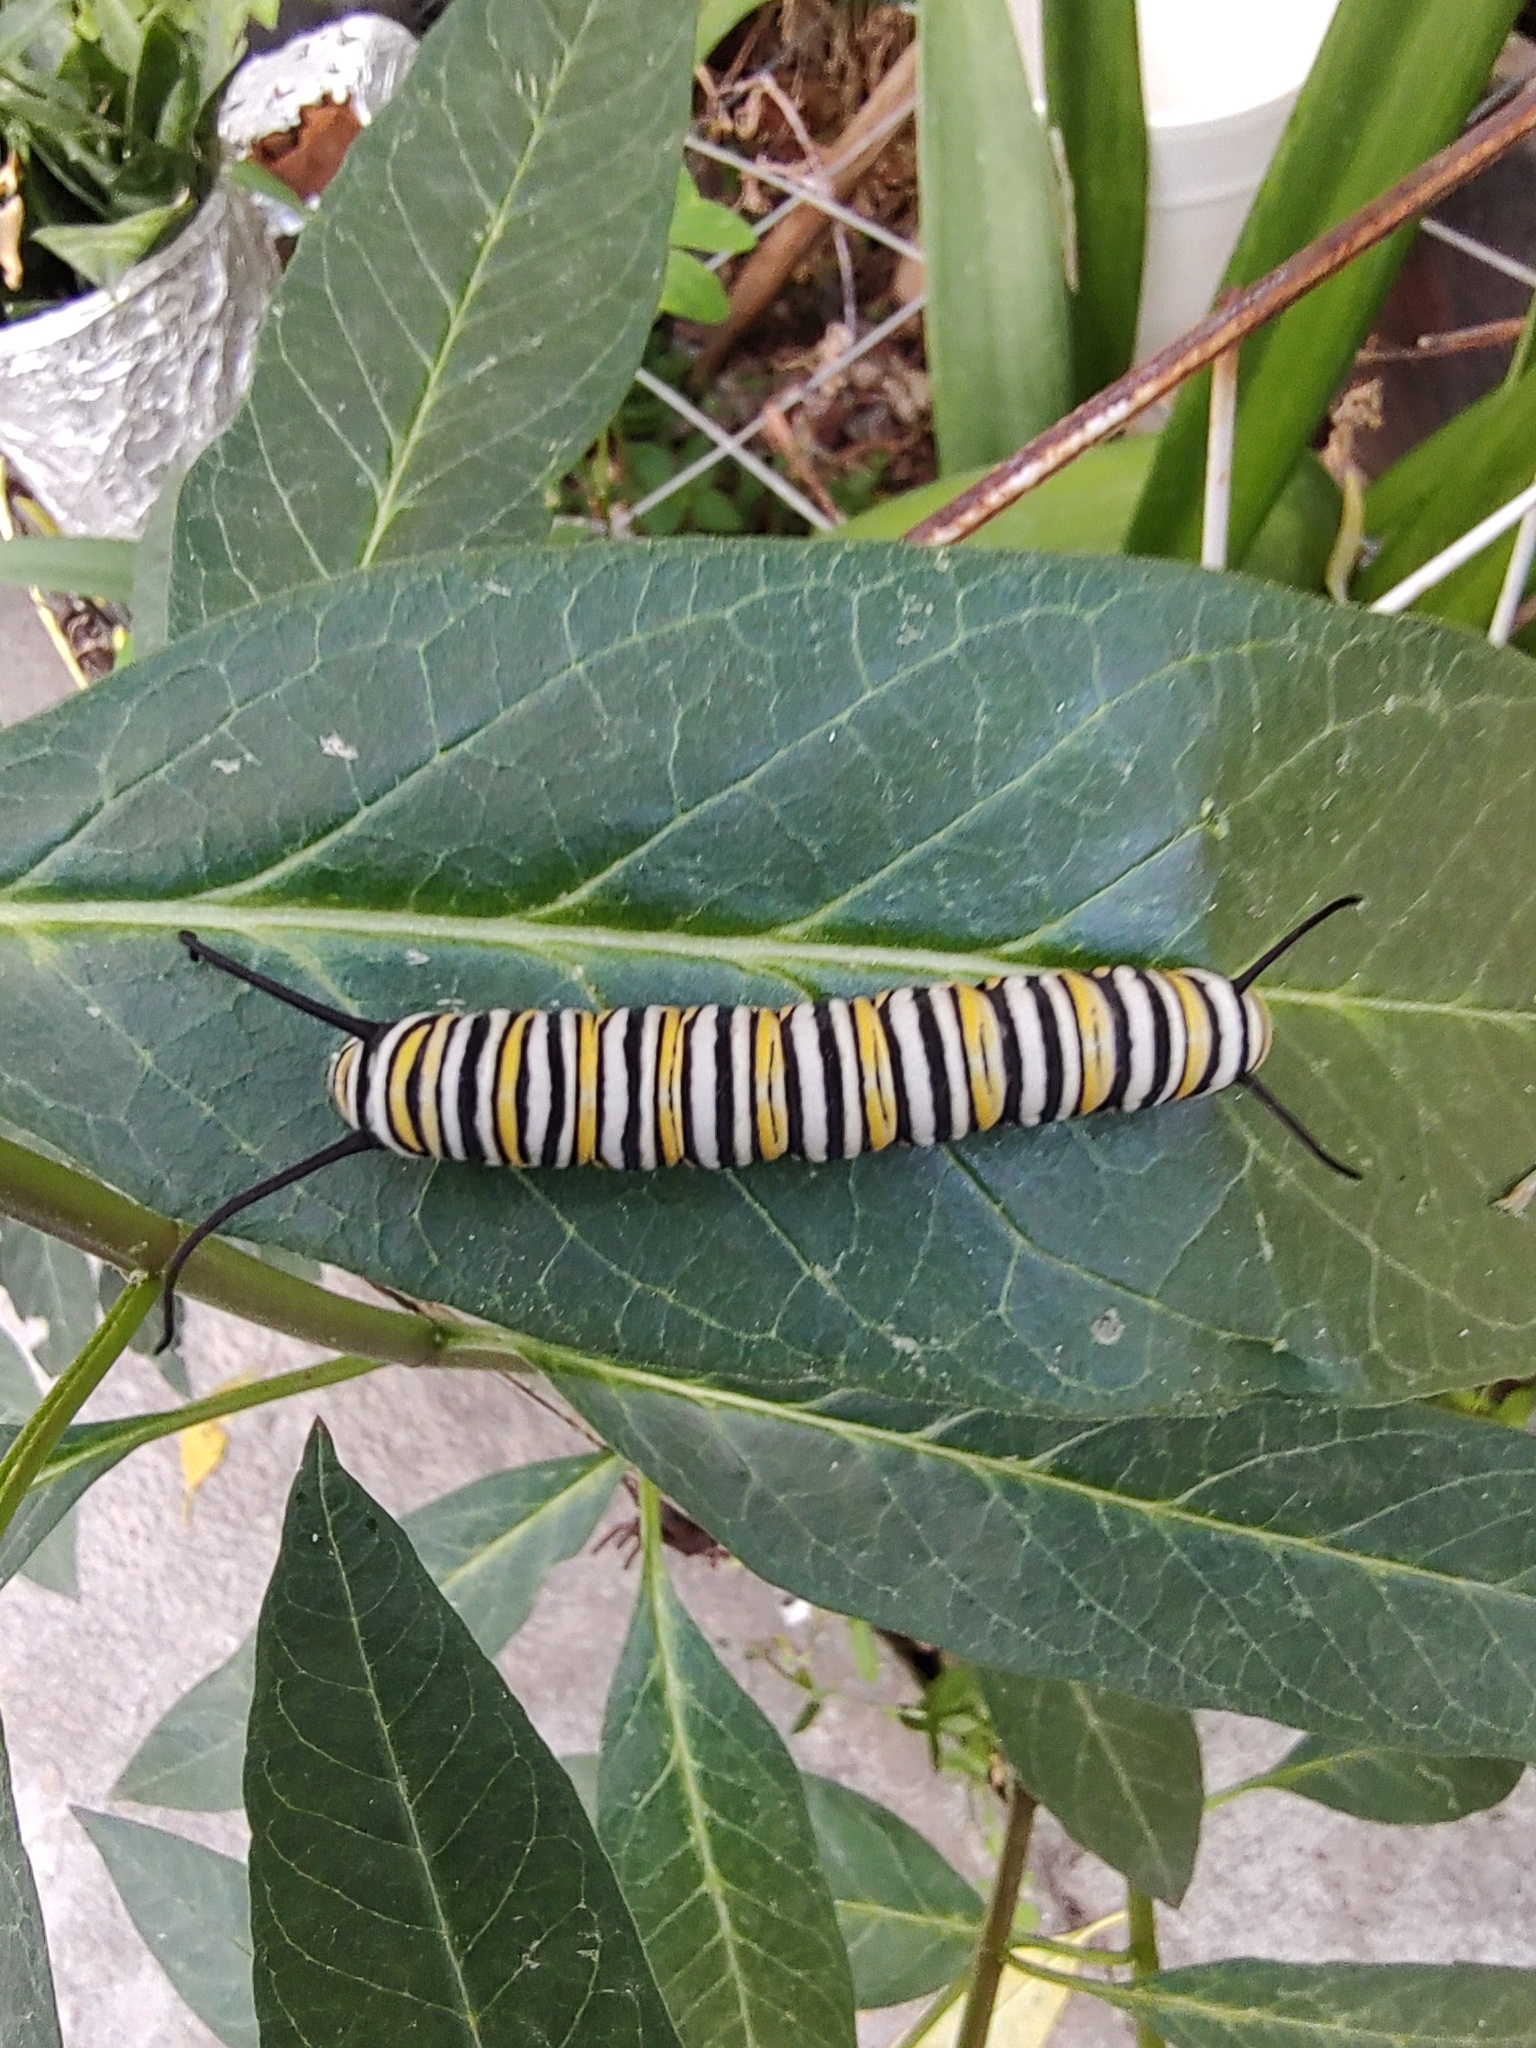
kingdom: Animalia
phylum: Arthropoda
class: Insecta
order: Lepidoptera
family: Nymphalidae
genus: Danaus
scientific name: Danaus plexippus
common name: Monarch
